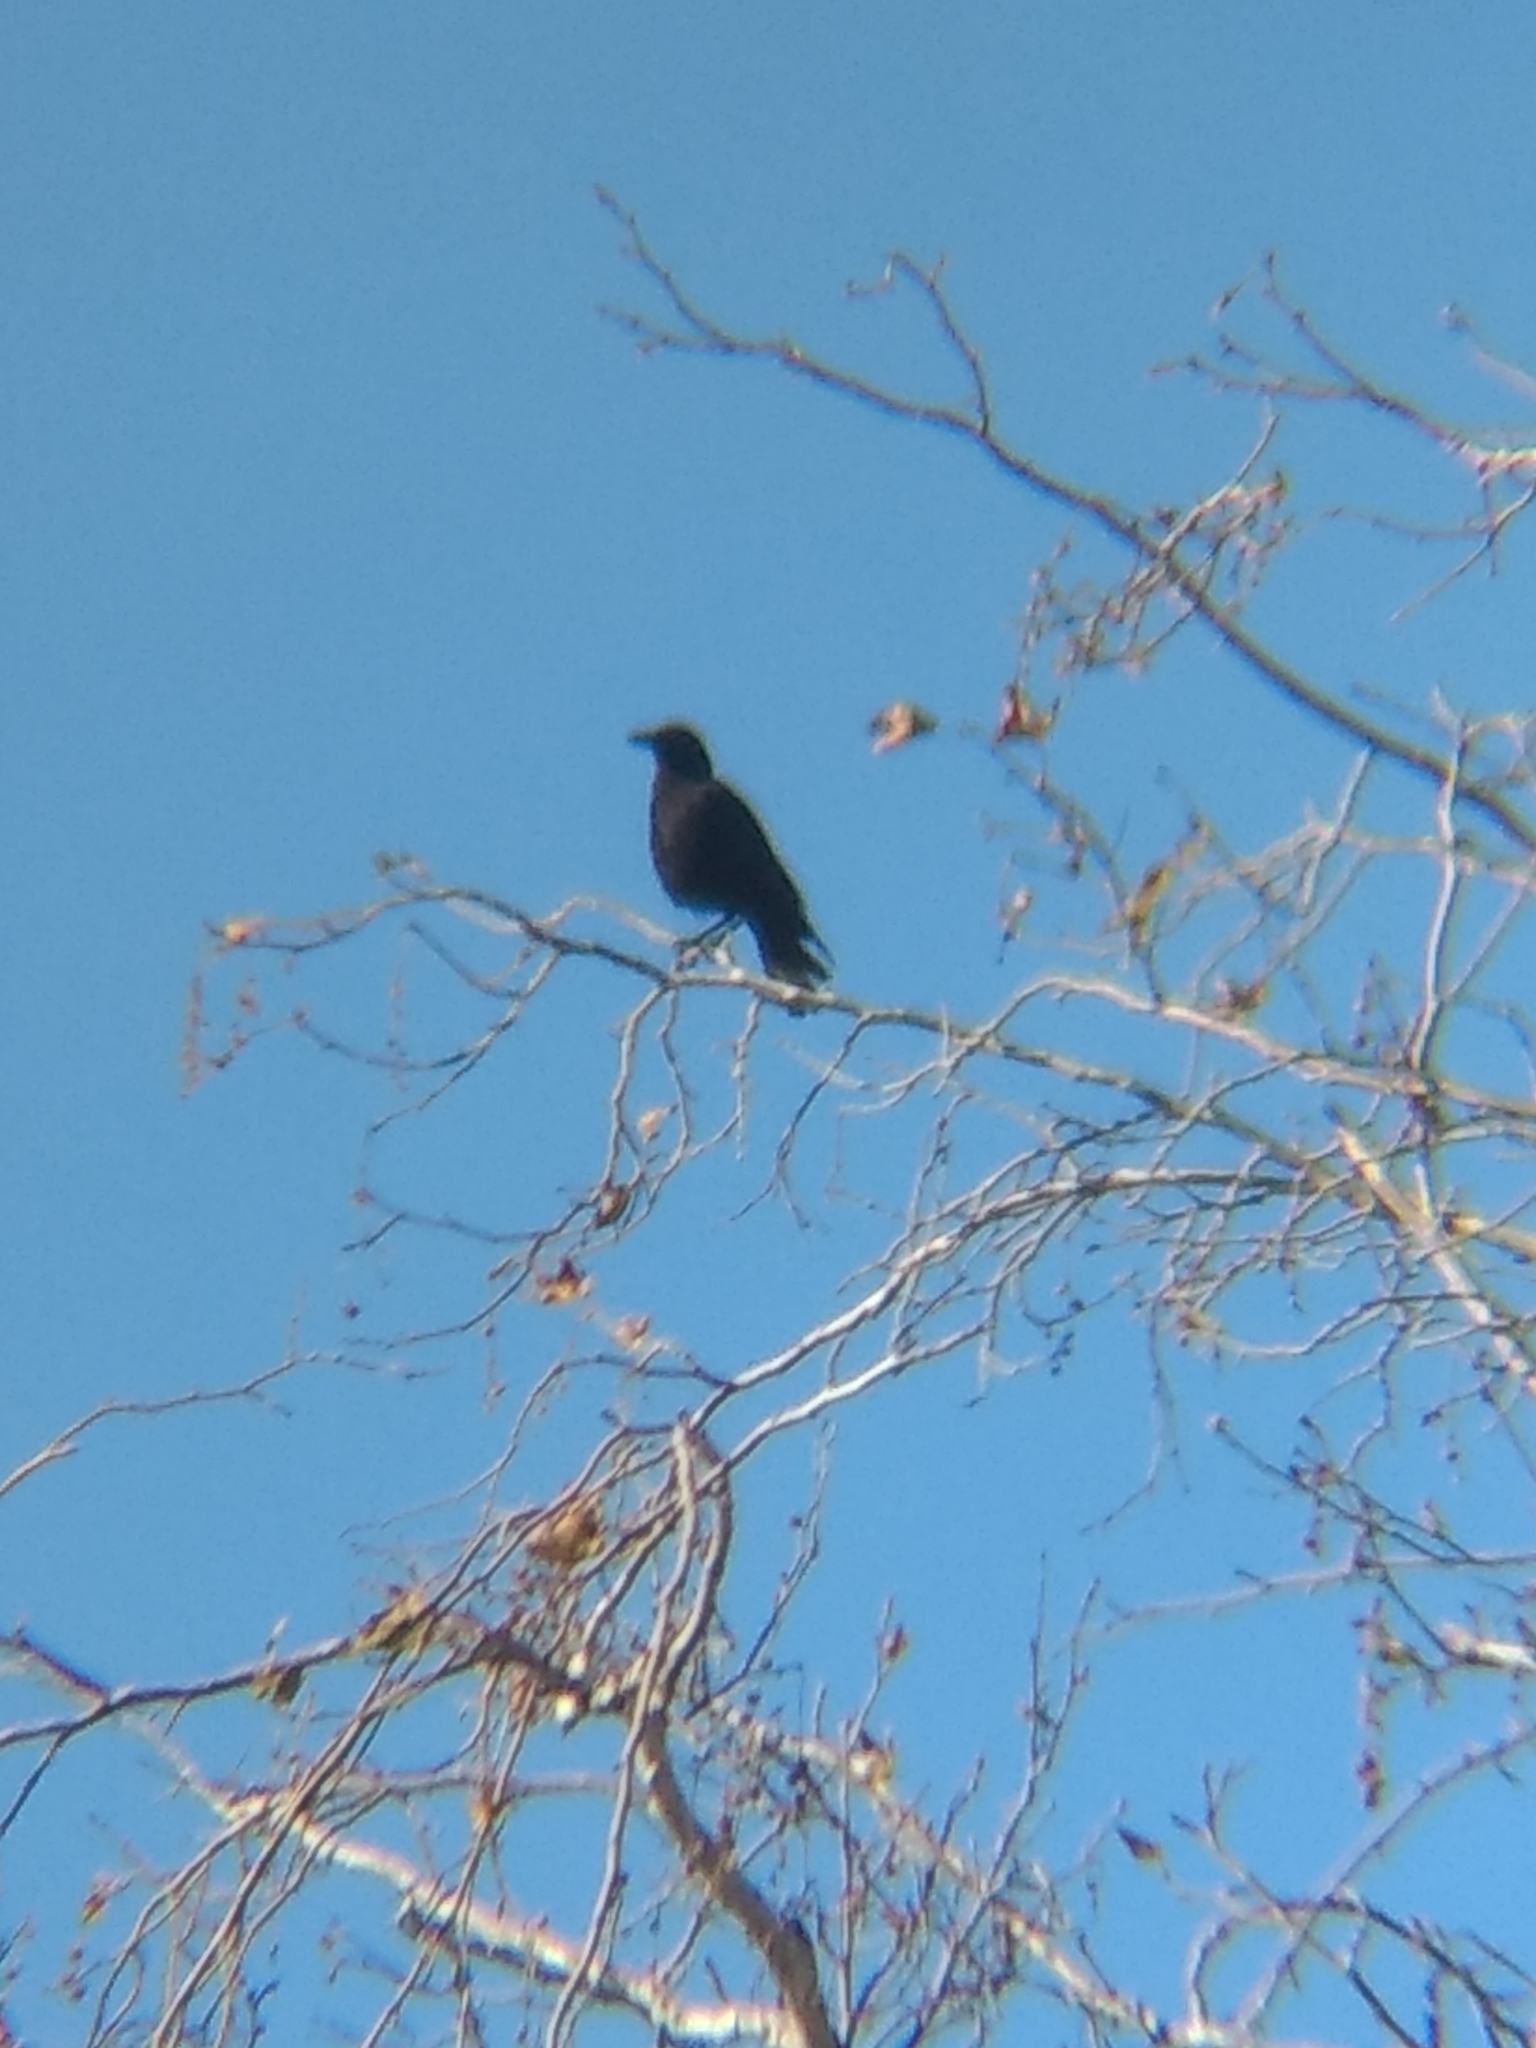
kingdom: Animalia
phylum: Chordata
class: Aves
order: Passeriformes
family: Corvidae
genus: Corvus
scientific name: Corvus brachyrhynchos
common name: American crow
